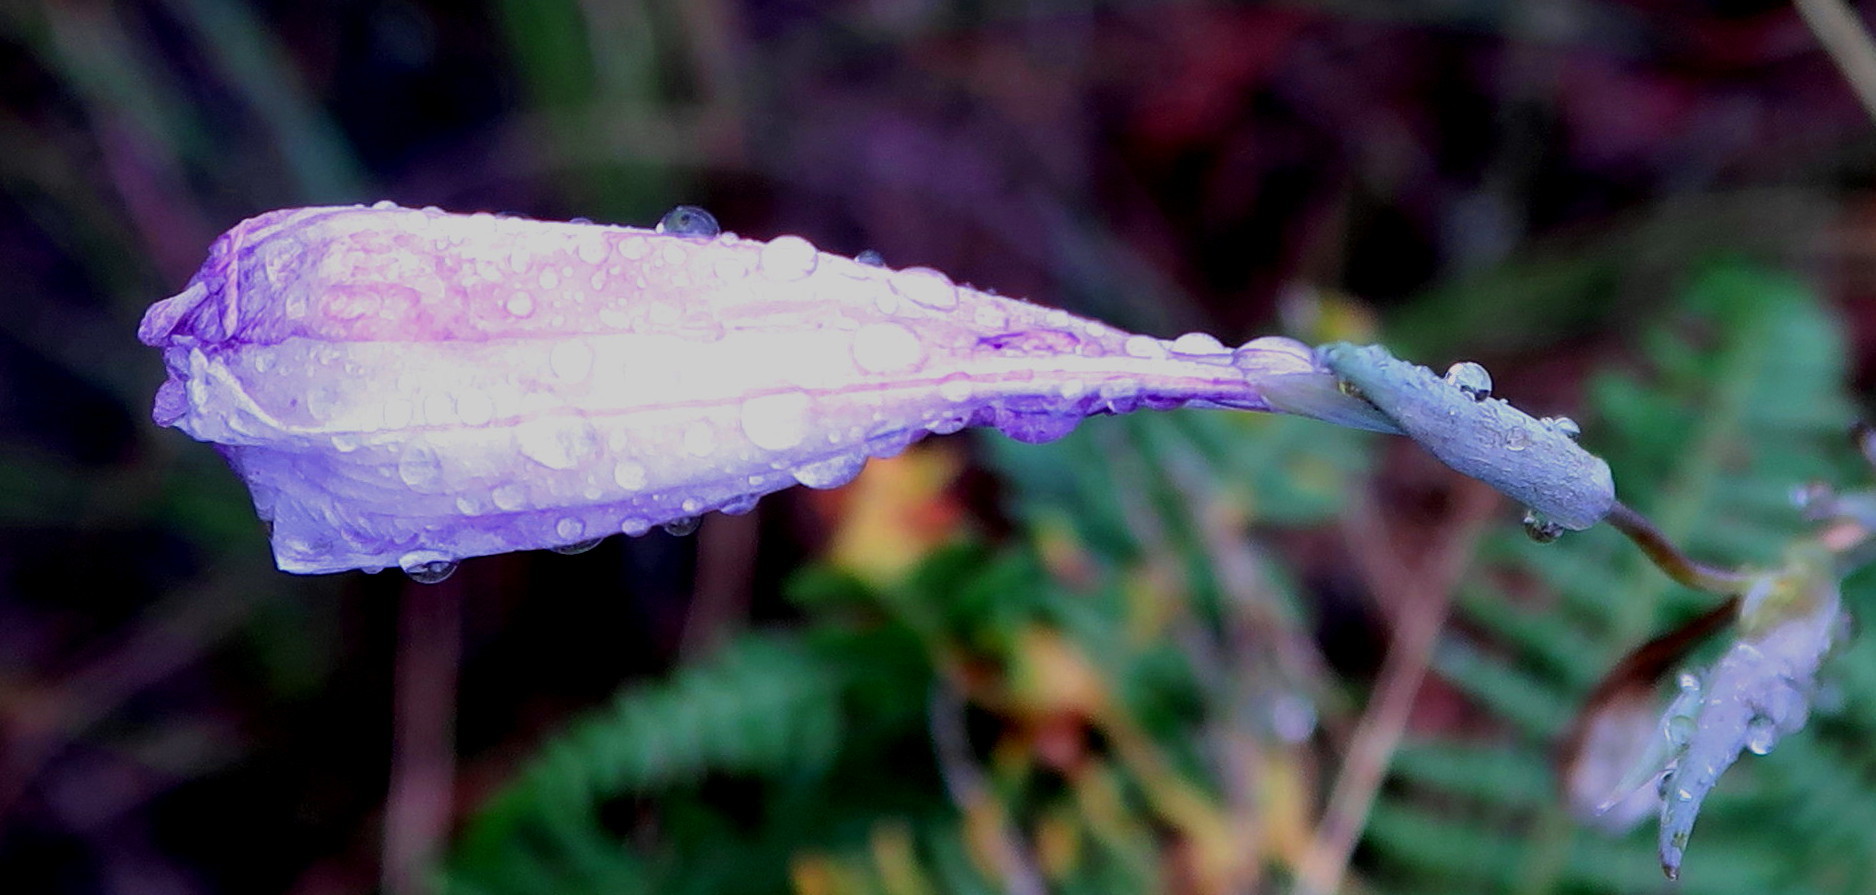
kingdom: Plantae
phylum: Tracheophyta
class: Liliopsida
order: Asparagales
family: Iridaceae
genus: Gladiolus
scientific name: Gladiolus roseovenosus
